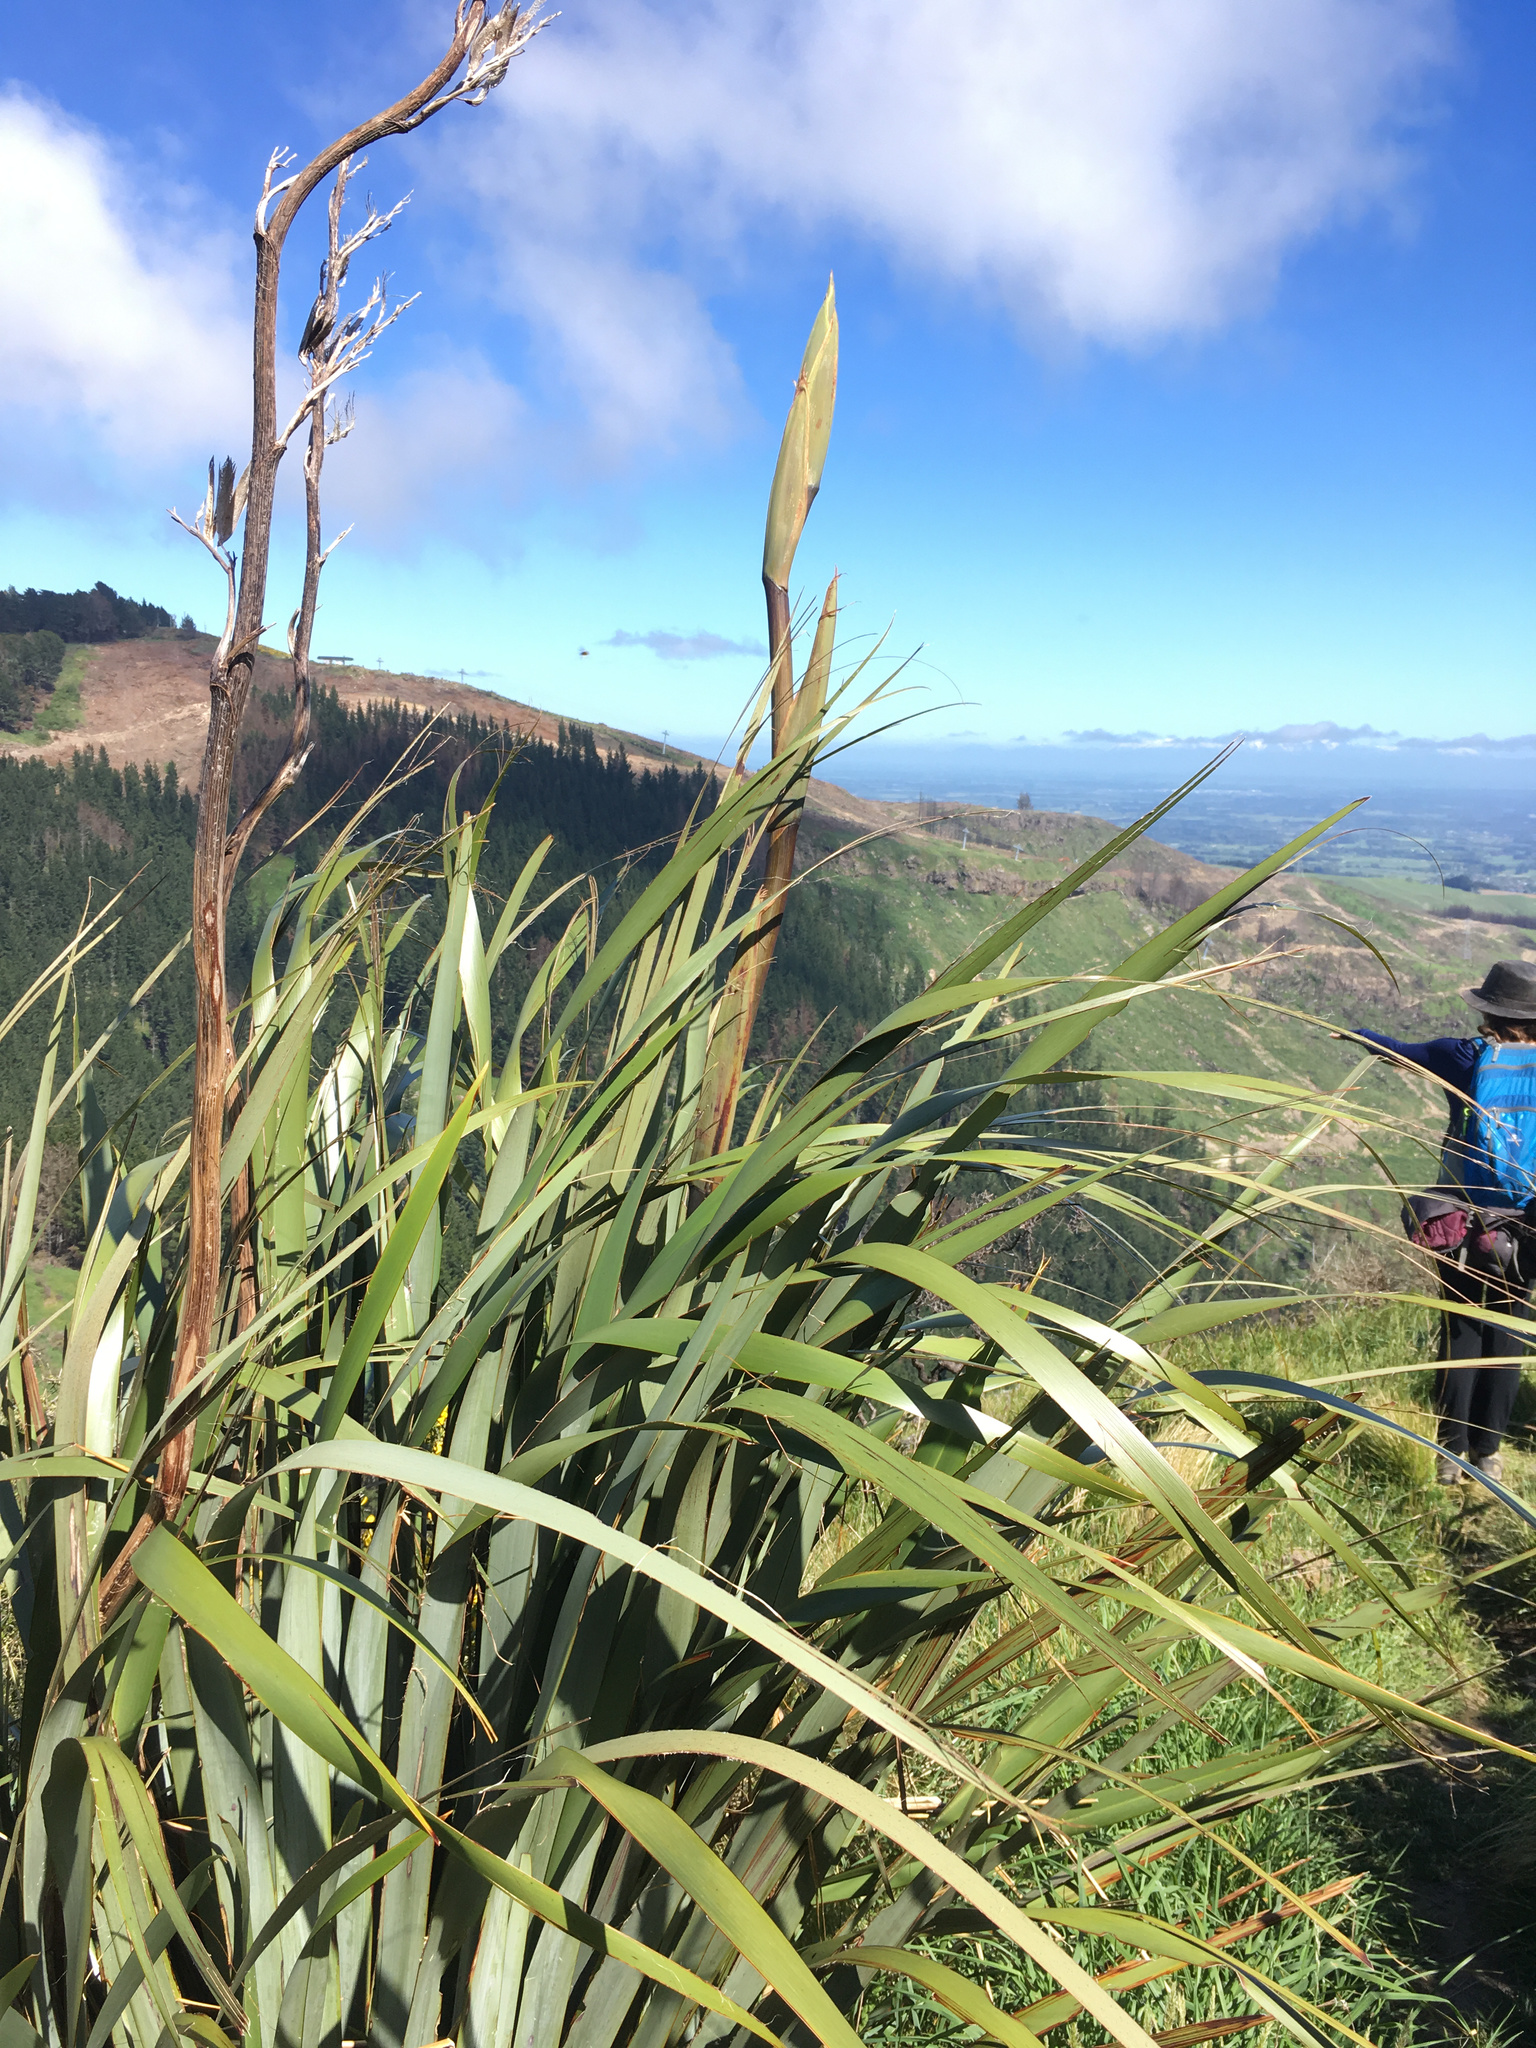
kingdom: Plantae
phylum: Tracheophyta
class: Liliopsida
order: Asparagales
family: Asphodelaceae
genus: Phormium
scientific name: Phormium tenax
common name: New zealand flax
